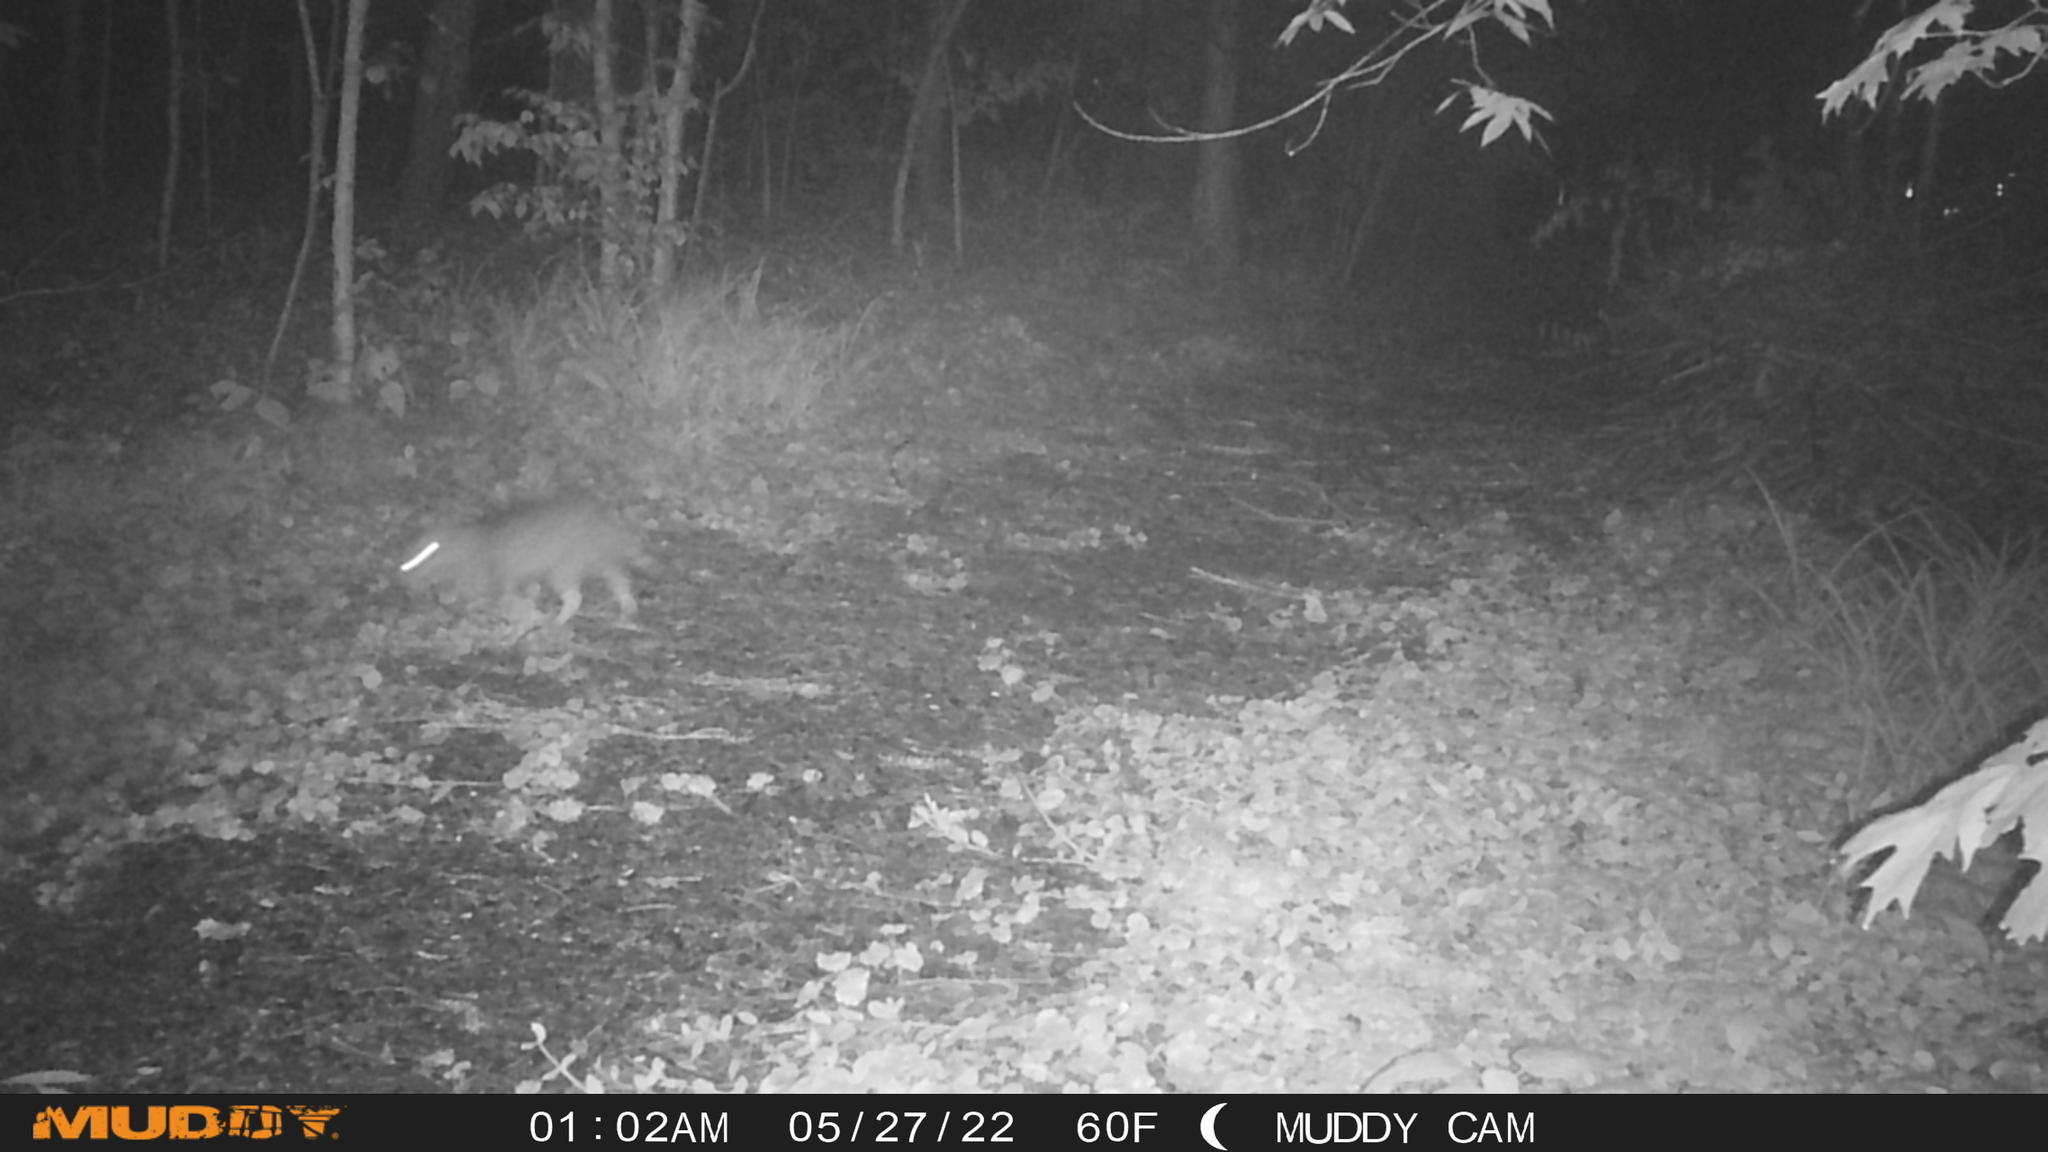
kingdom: Animalia
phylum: Chordata
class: Mammalia
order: Carnivora
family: Felidae
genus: Felis
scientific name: Felis catus
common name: Domestic cat
